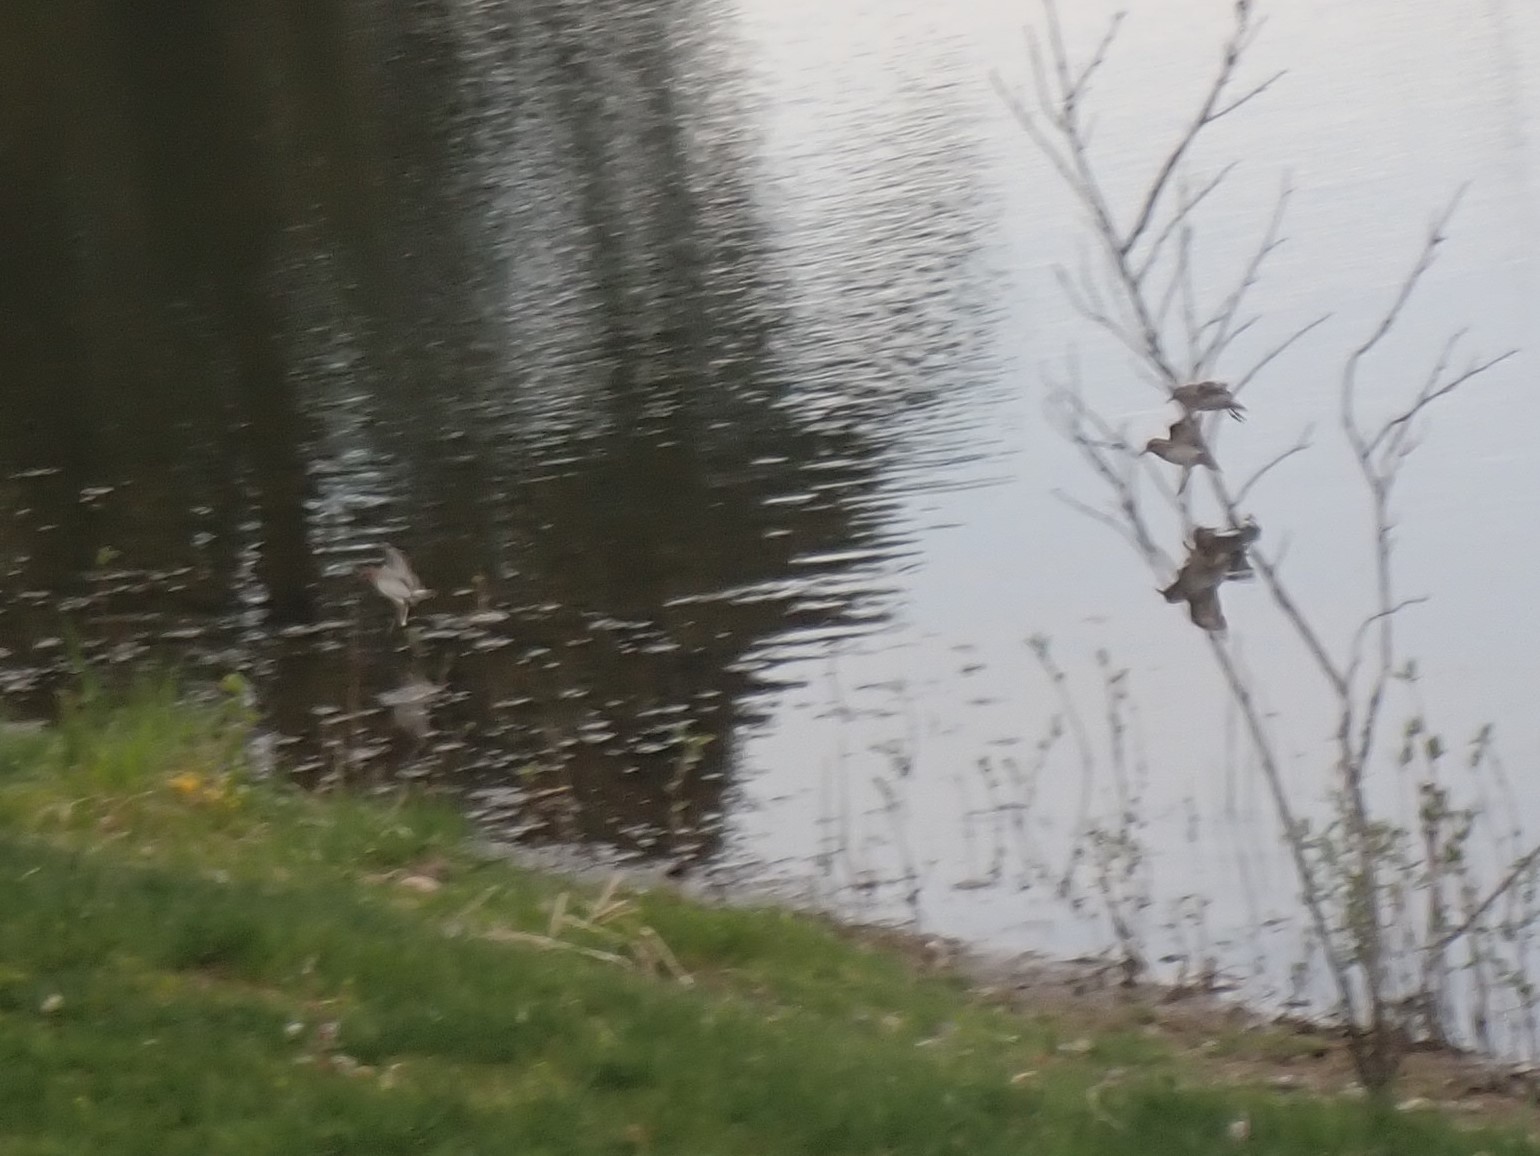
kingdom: Animalia
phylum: Chordata
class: Aves
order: Charadriiformes
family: Scolopacidae
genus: Calidris
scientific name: Calidris minutilla
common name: Least sandpiper
